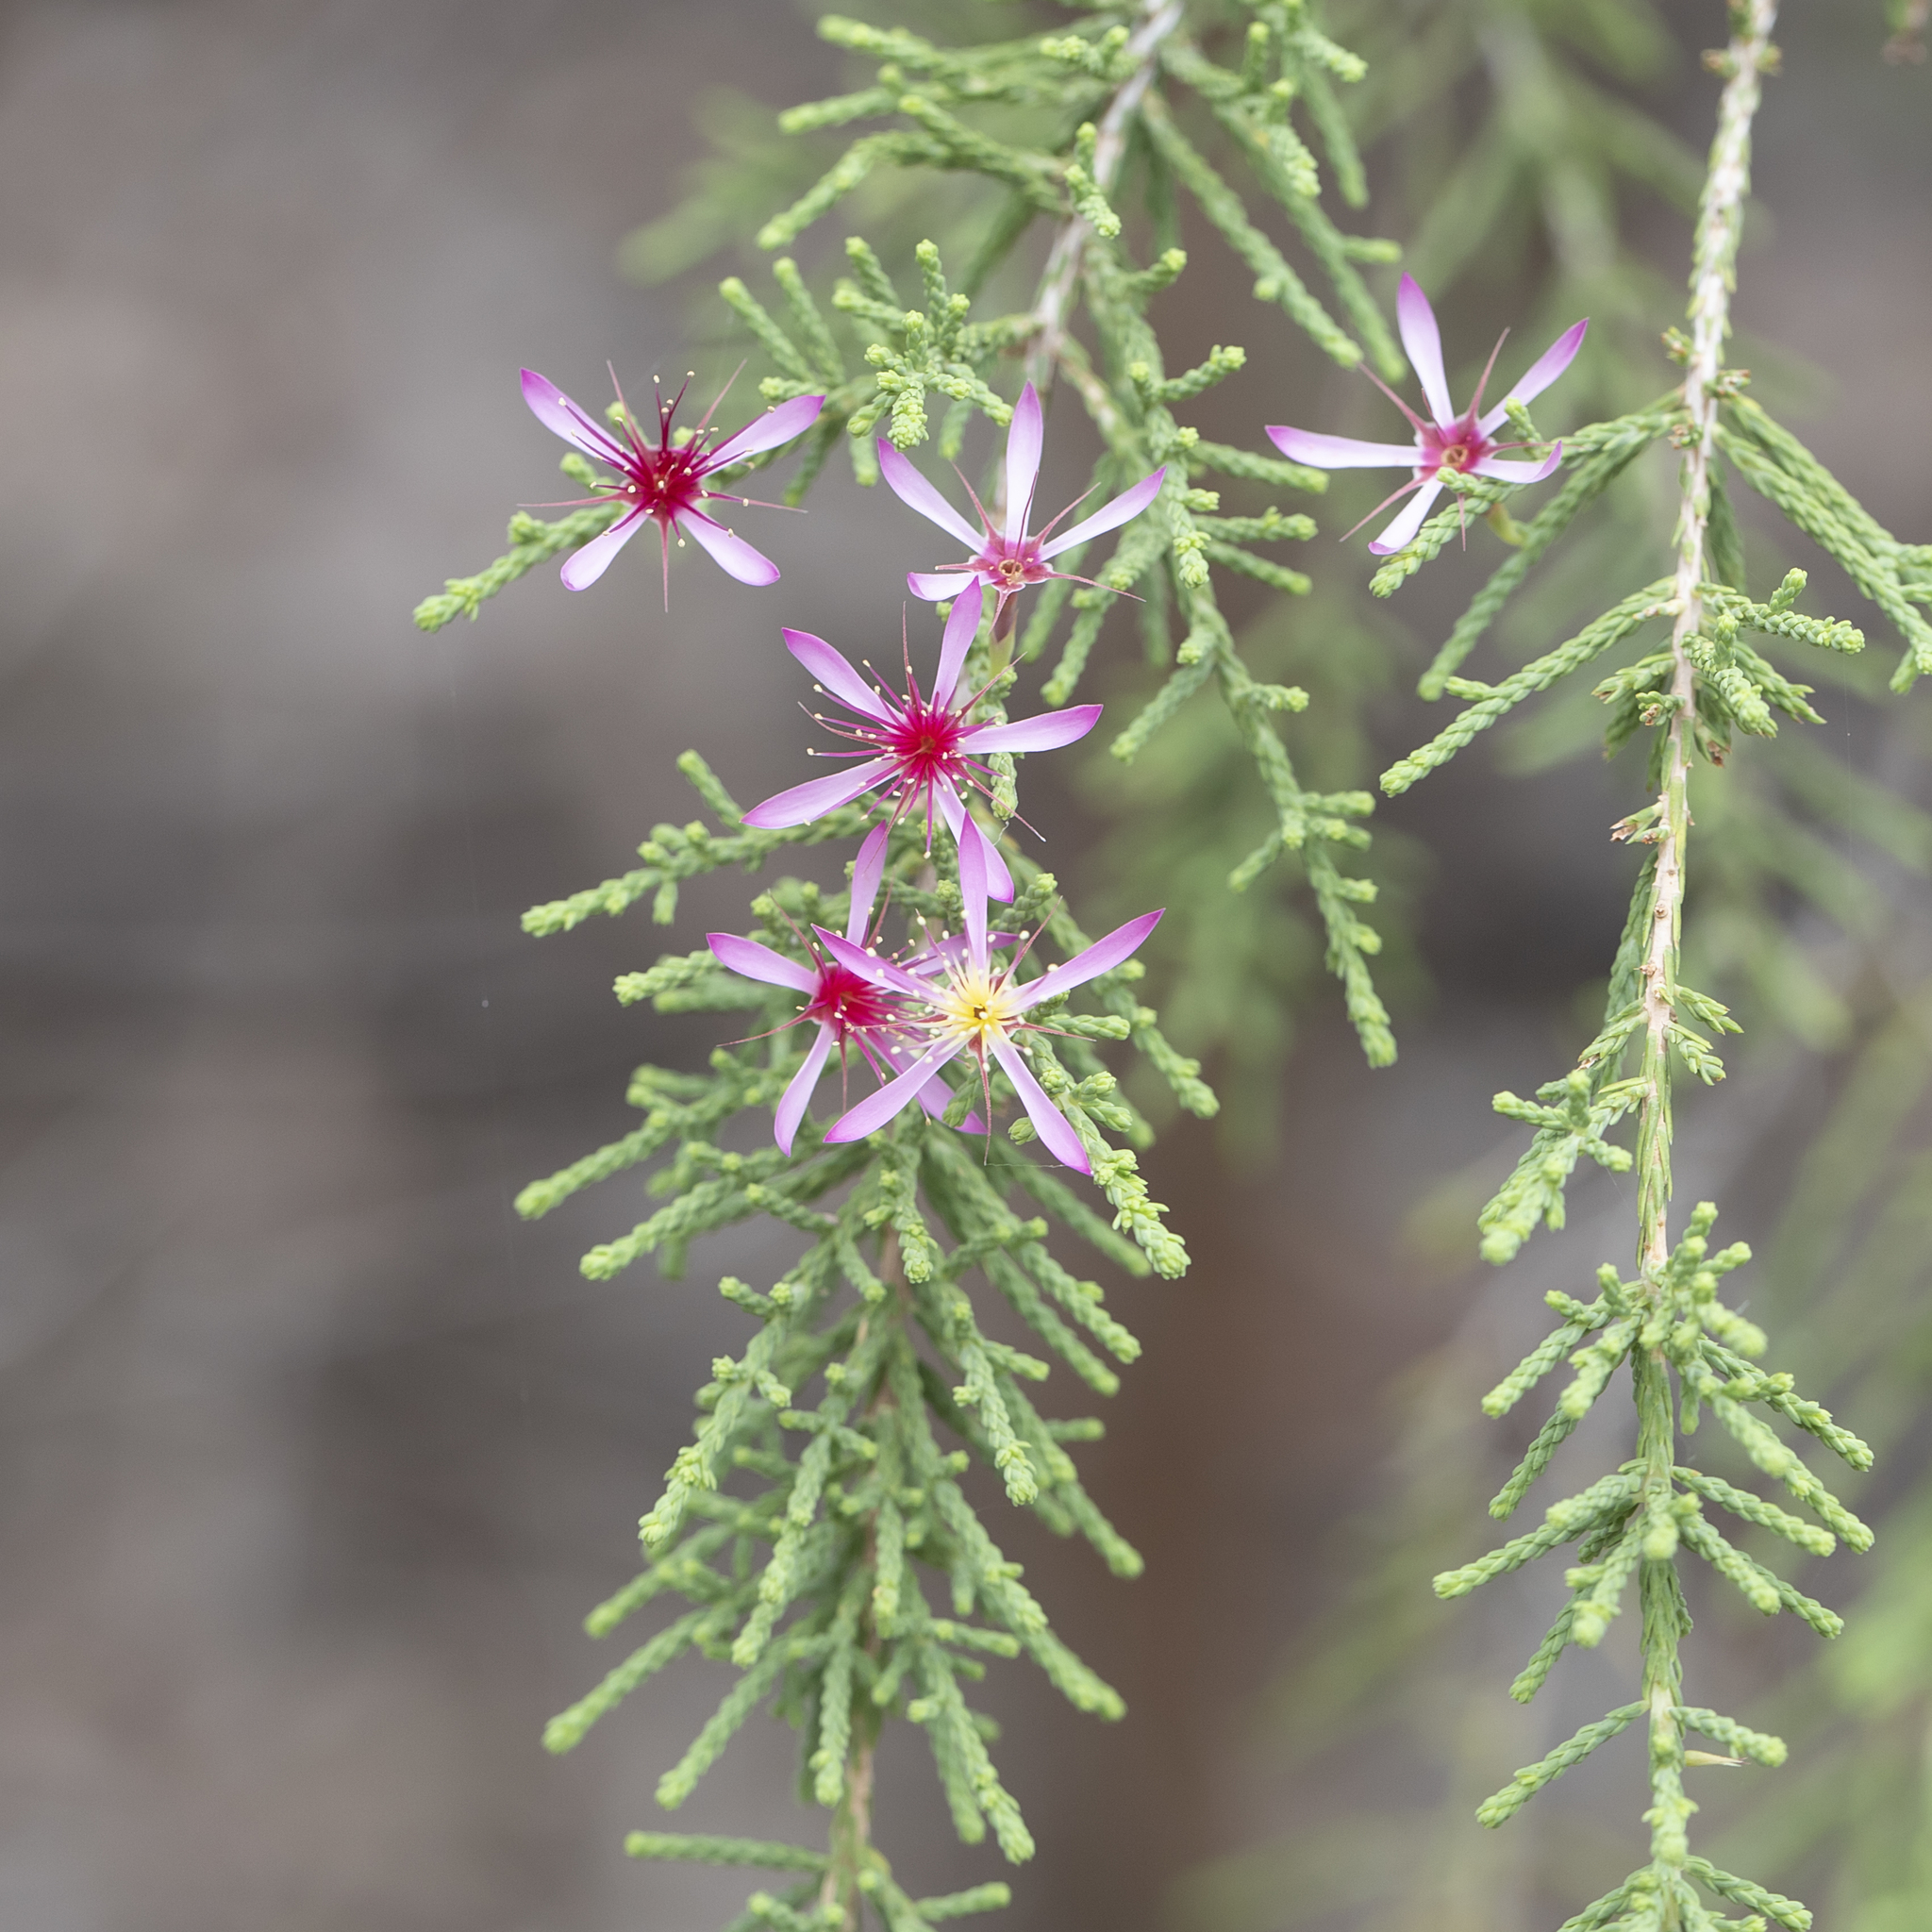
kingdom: Plantae
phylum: Tracheophyta
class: Magnoliopsida
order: Myrtales
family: Myrtaceae
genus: Calytrix
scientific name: Calytrix exstipulata
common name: Kimberley heather
